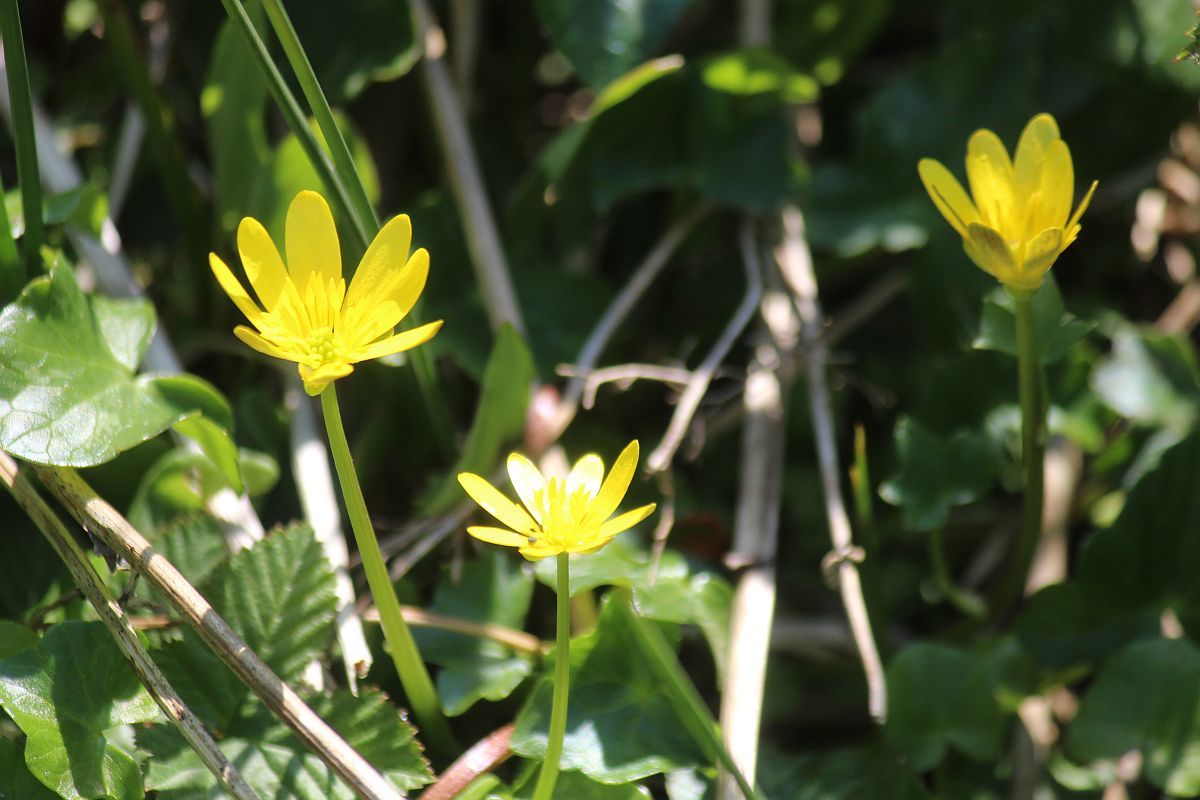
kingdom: Plantae
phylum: Tracheophyta
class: Magnoliopsida
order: Ranunculales
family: Ranunculaceae
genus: Ficaria
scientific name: Ficaria verna
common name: Lesser celandine
